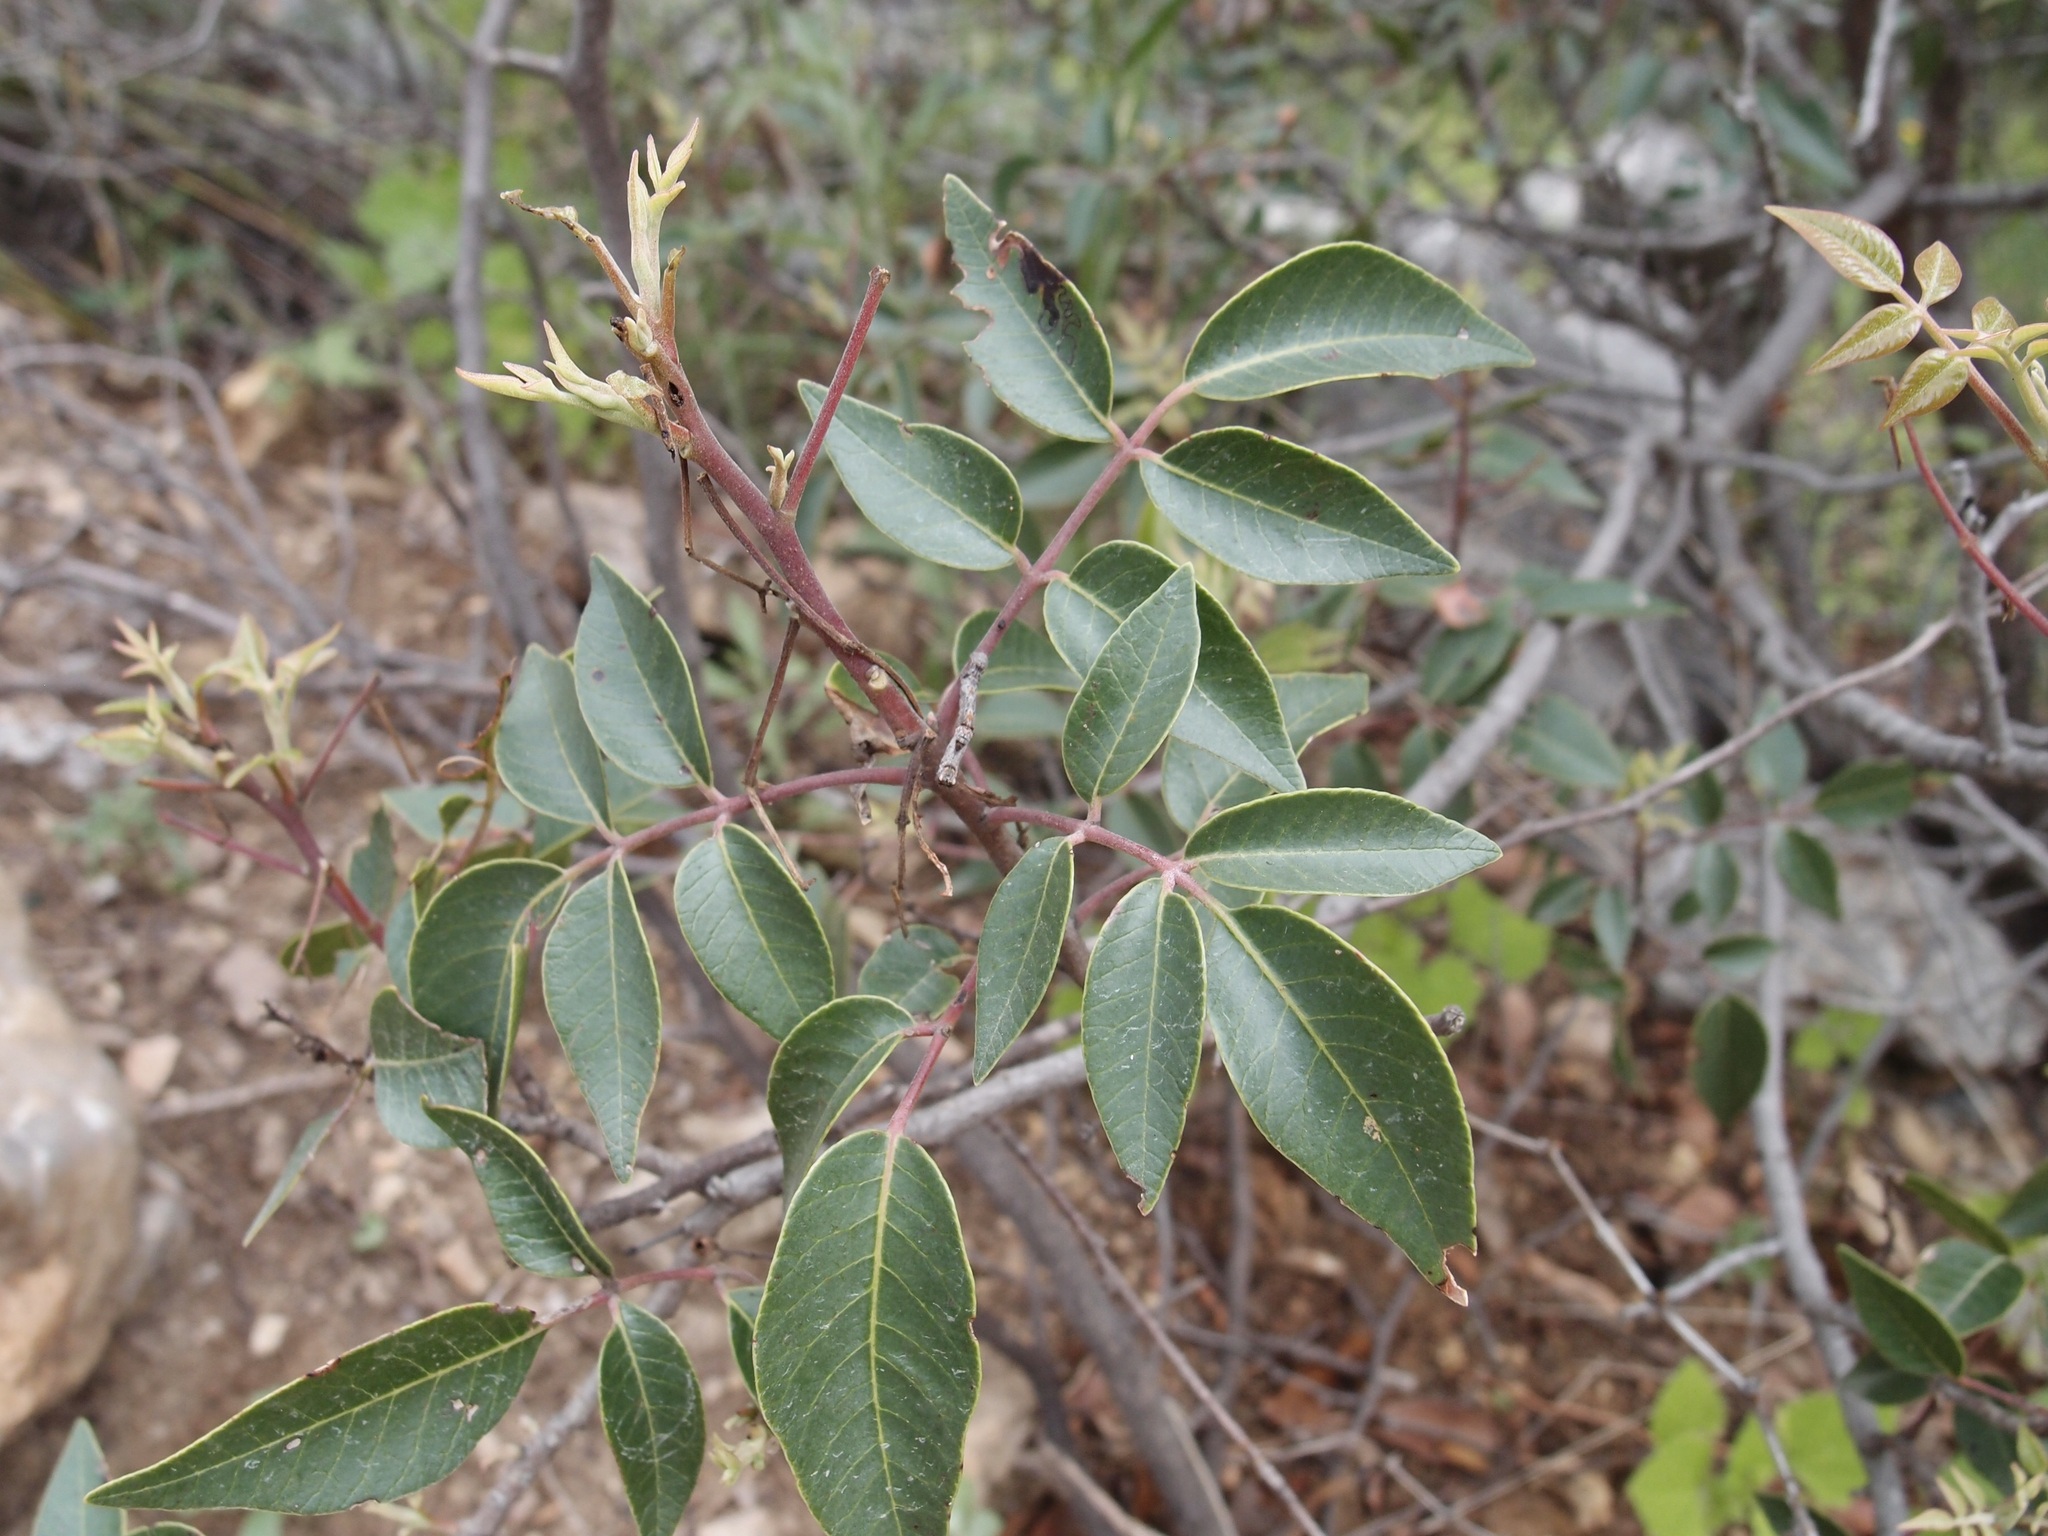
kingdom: Plantae
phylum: Tracheophyta
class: Magnoliopsida
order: Sapindales
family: Anacardiaceae
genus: Rhus
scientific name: Rhus virens
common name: Evergreen sumac
